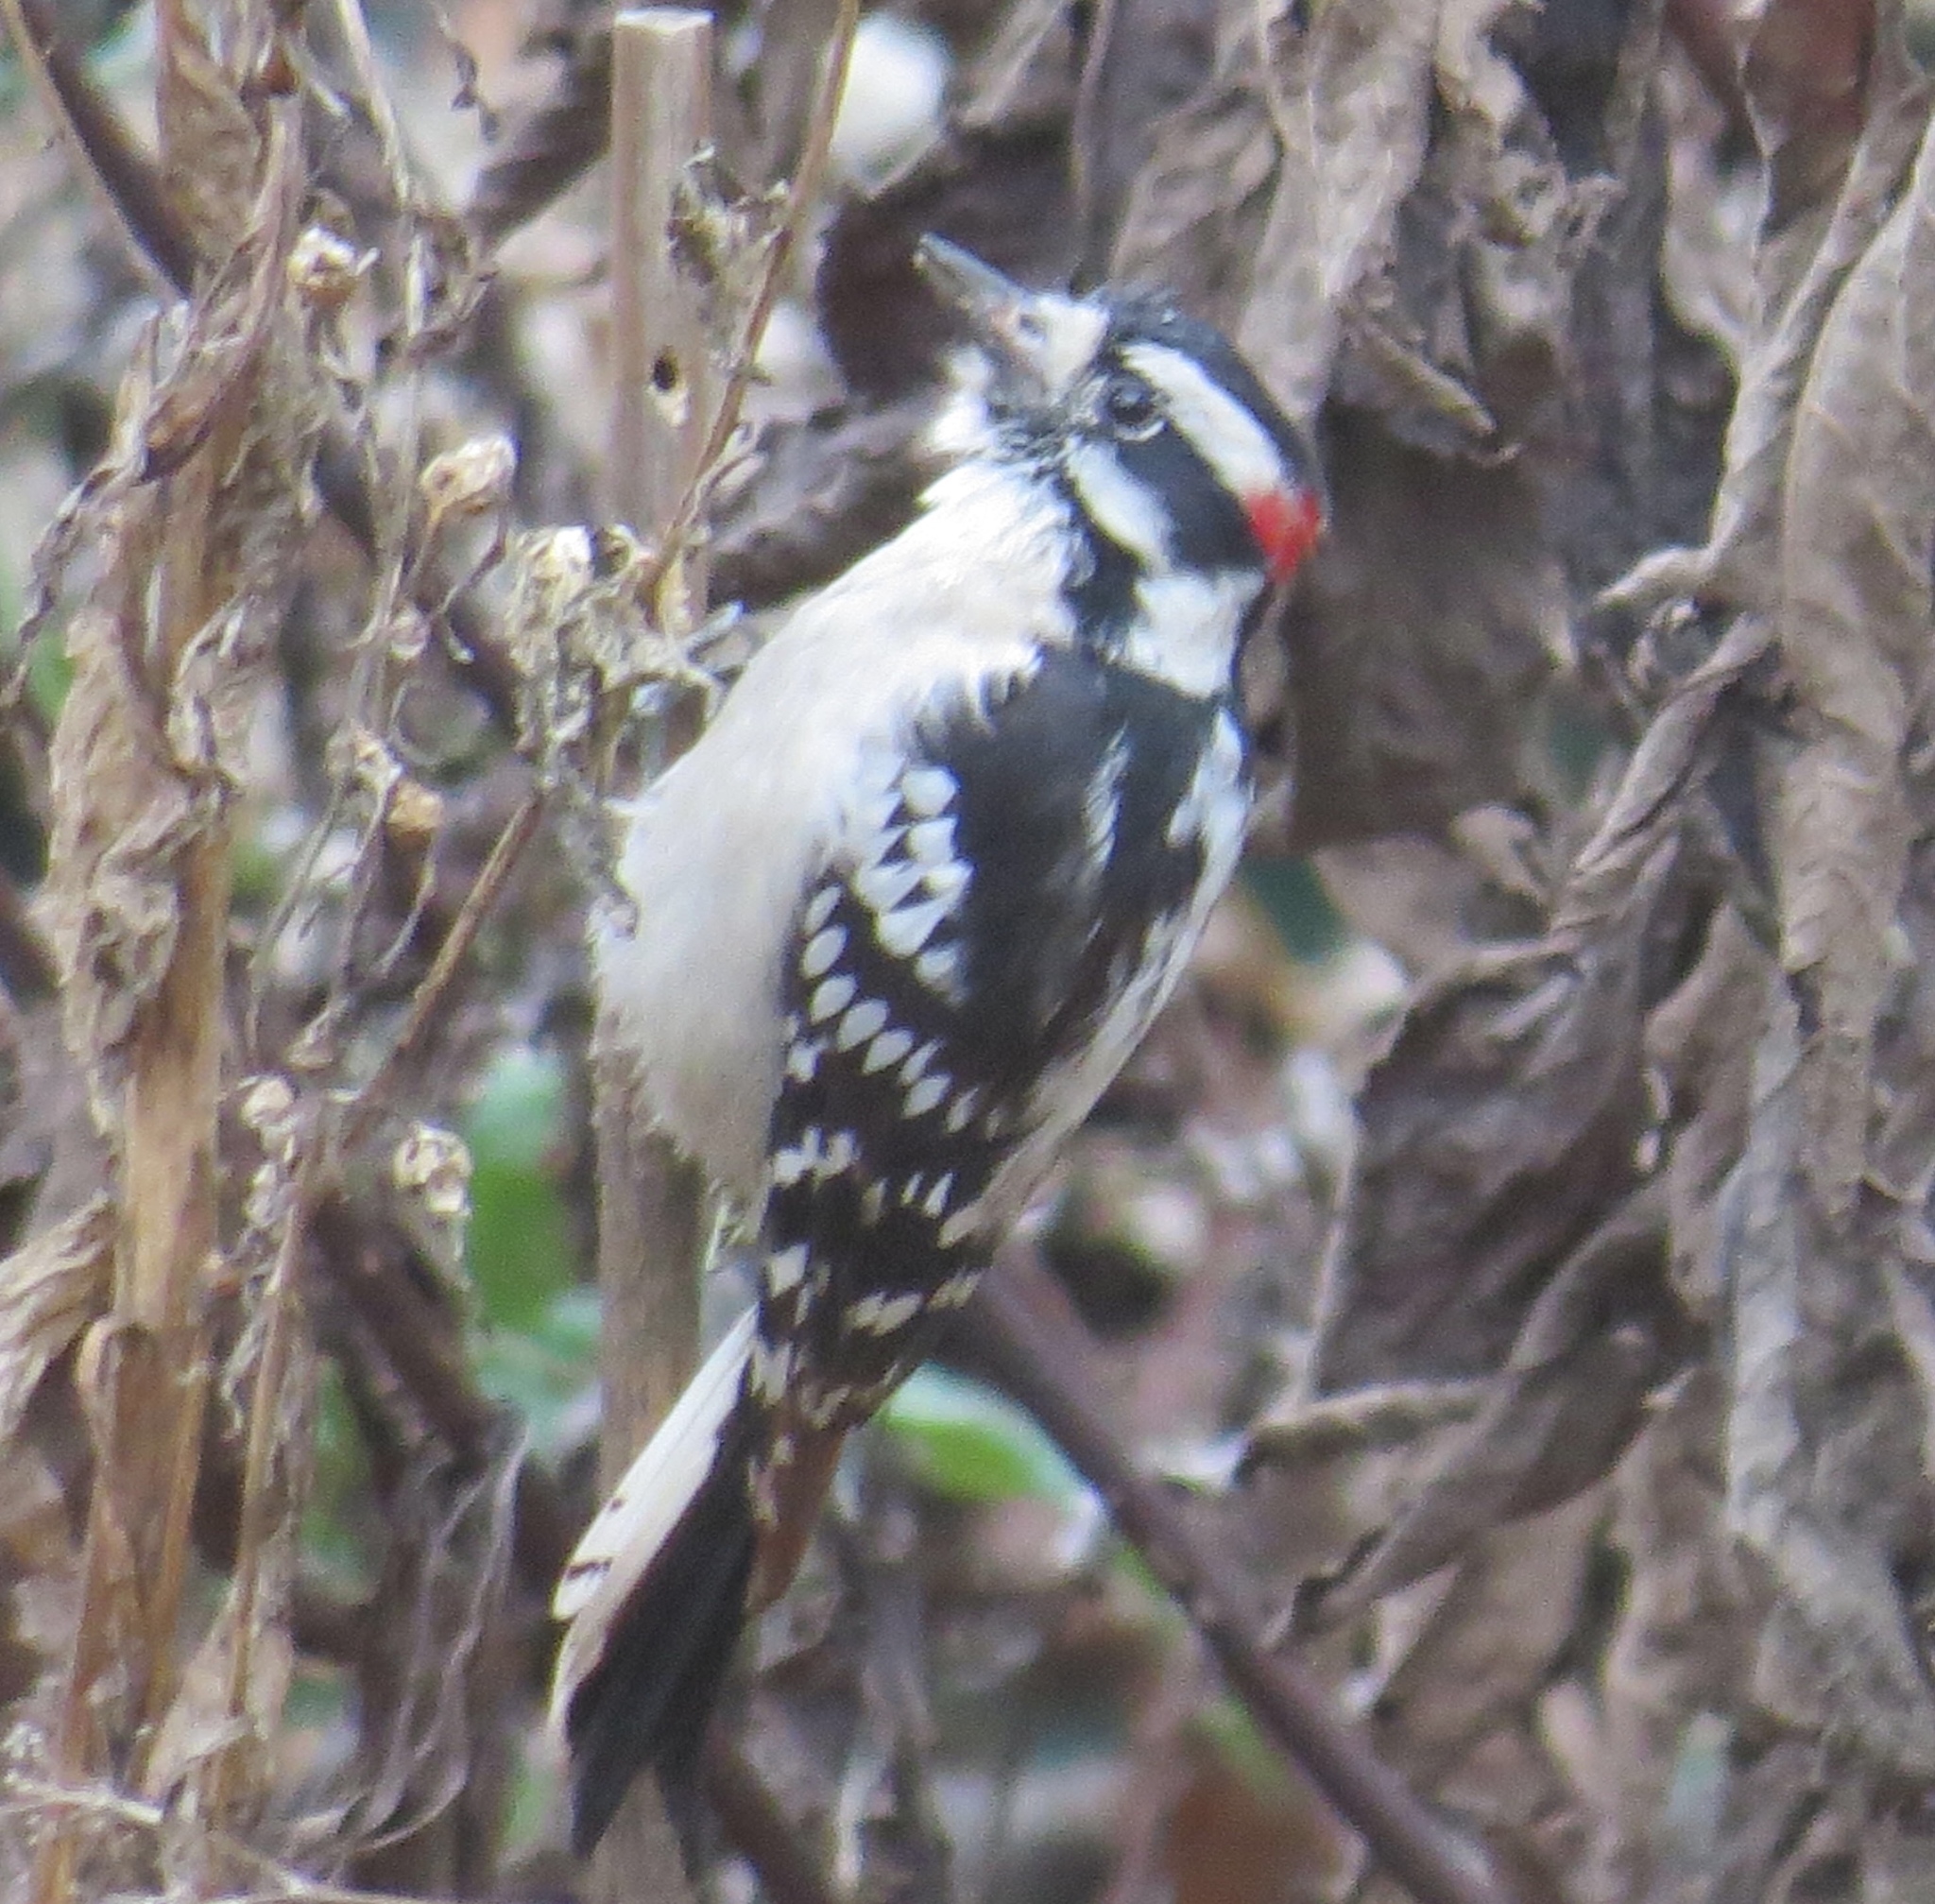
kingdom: Animalia
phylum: Chordata
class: Aves
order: Piciformes
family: Picidae
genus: Dryobates
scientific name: Dryobates pubescens
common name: Downy woodpecker
